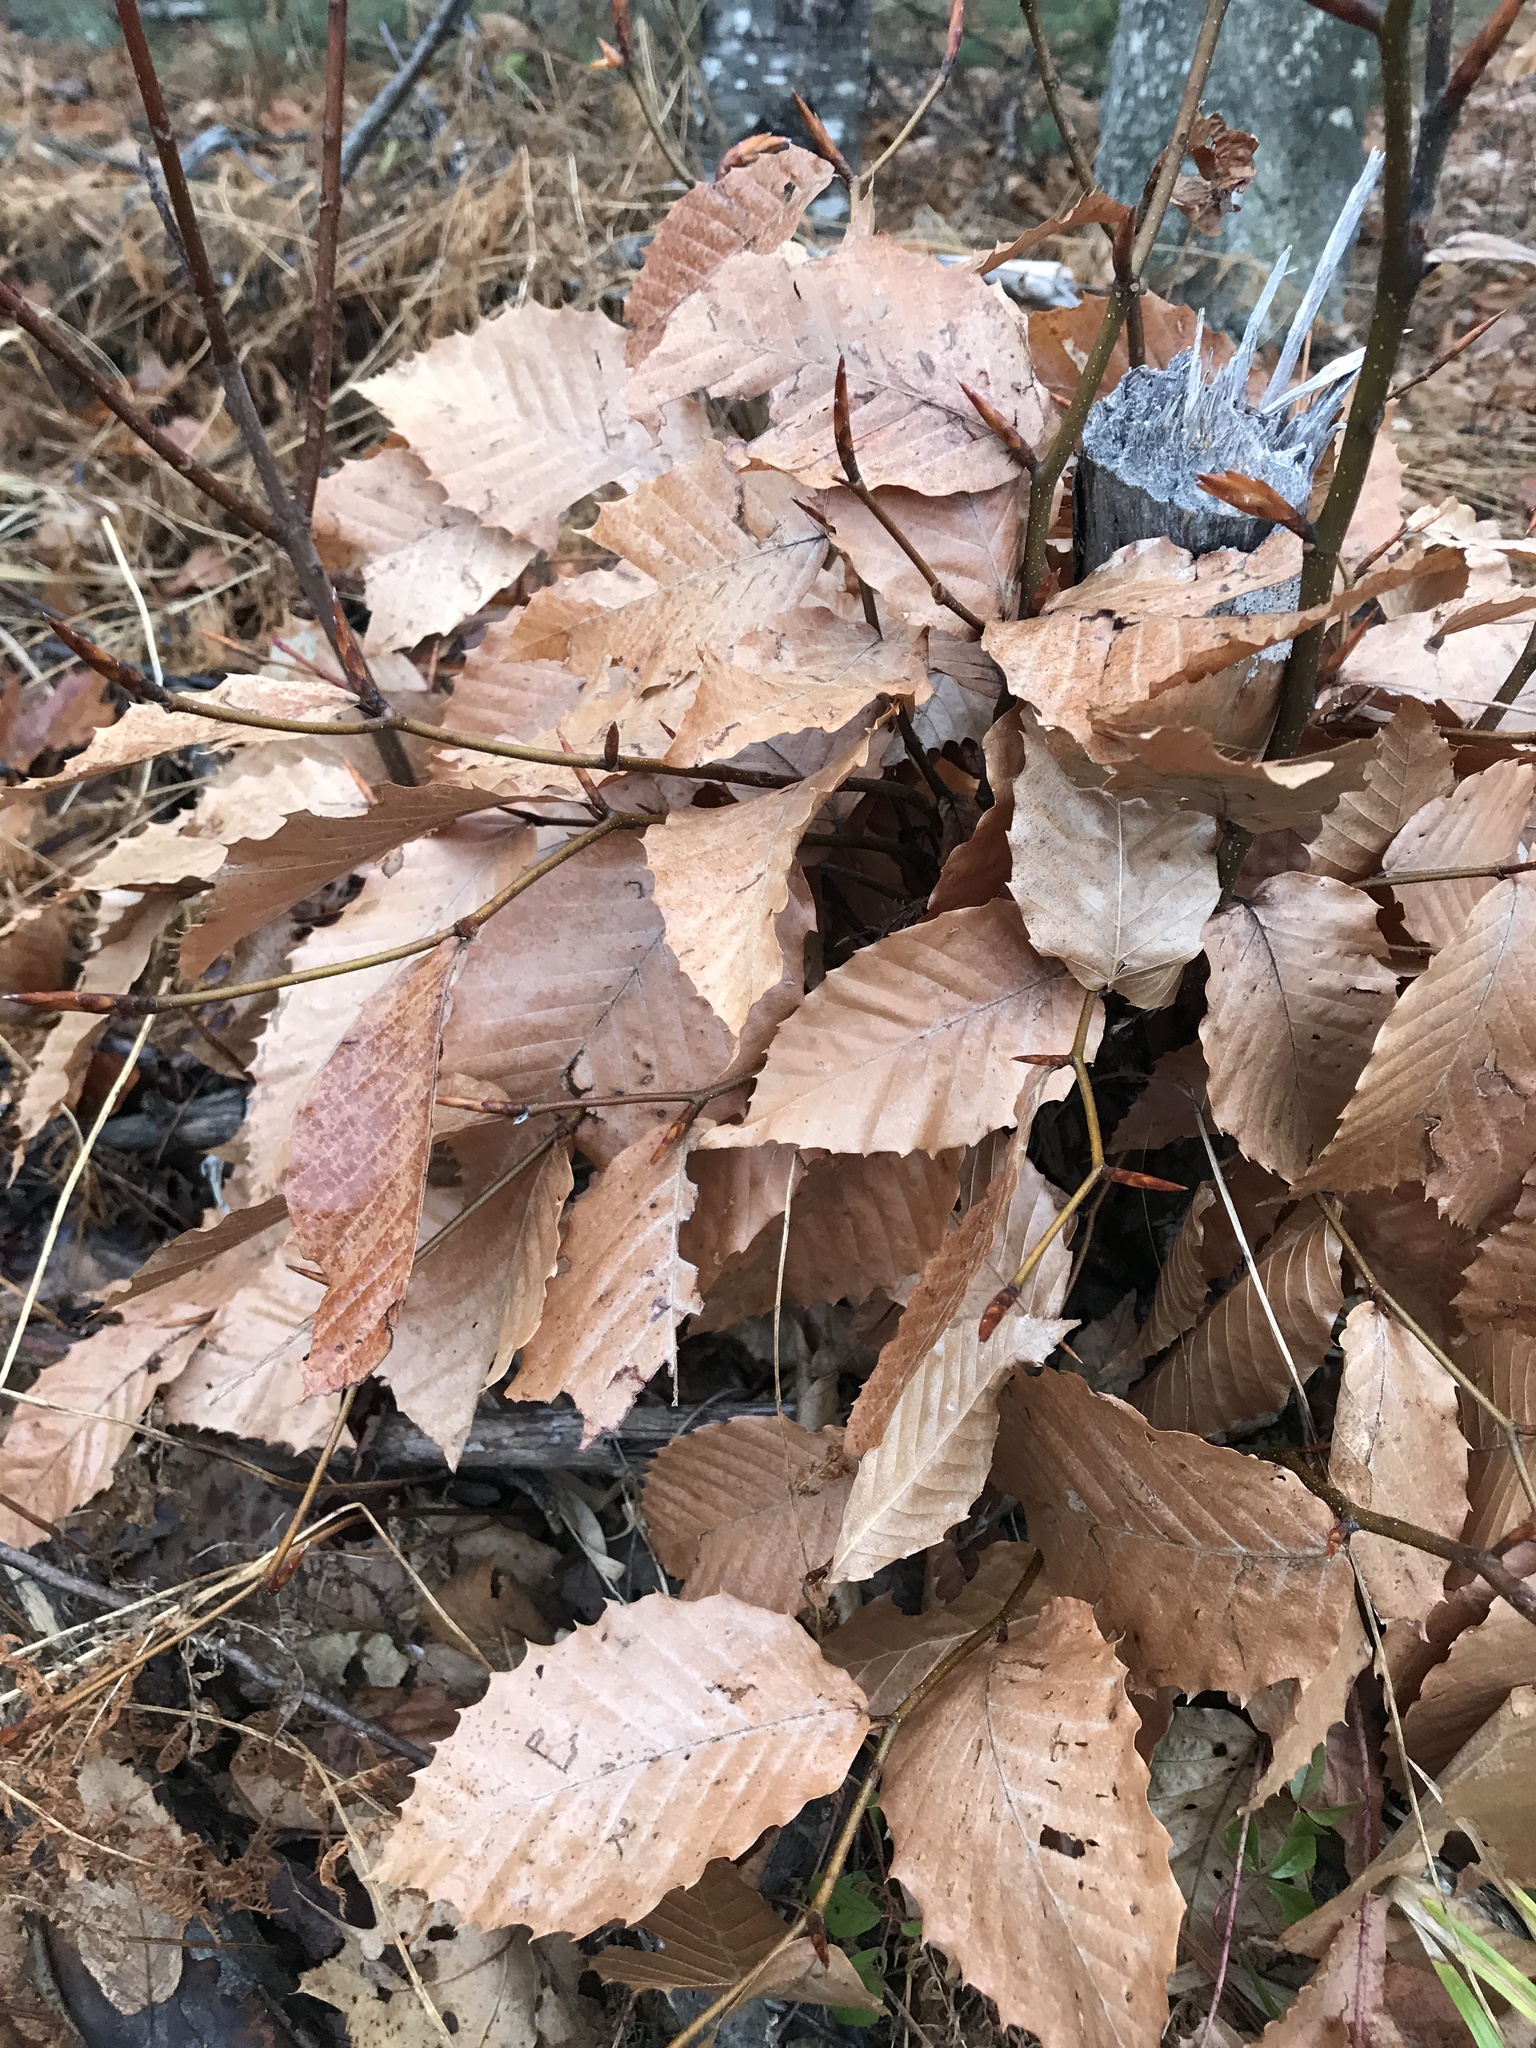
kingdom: Plantae
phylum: Tracheophyta
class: Magnoliopsida
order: Fagales
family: Fagaceae
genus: Fagus
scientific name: Fagus grandifolia
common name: American beech
